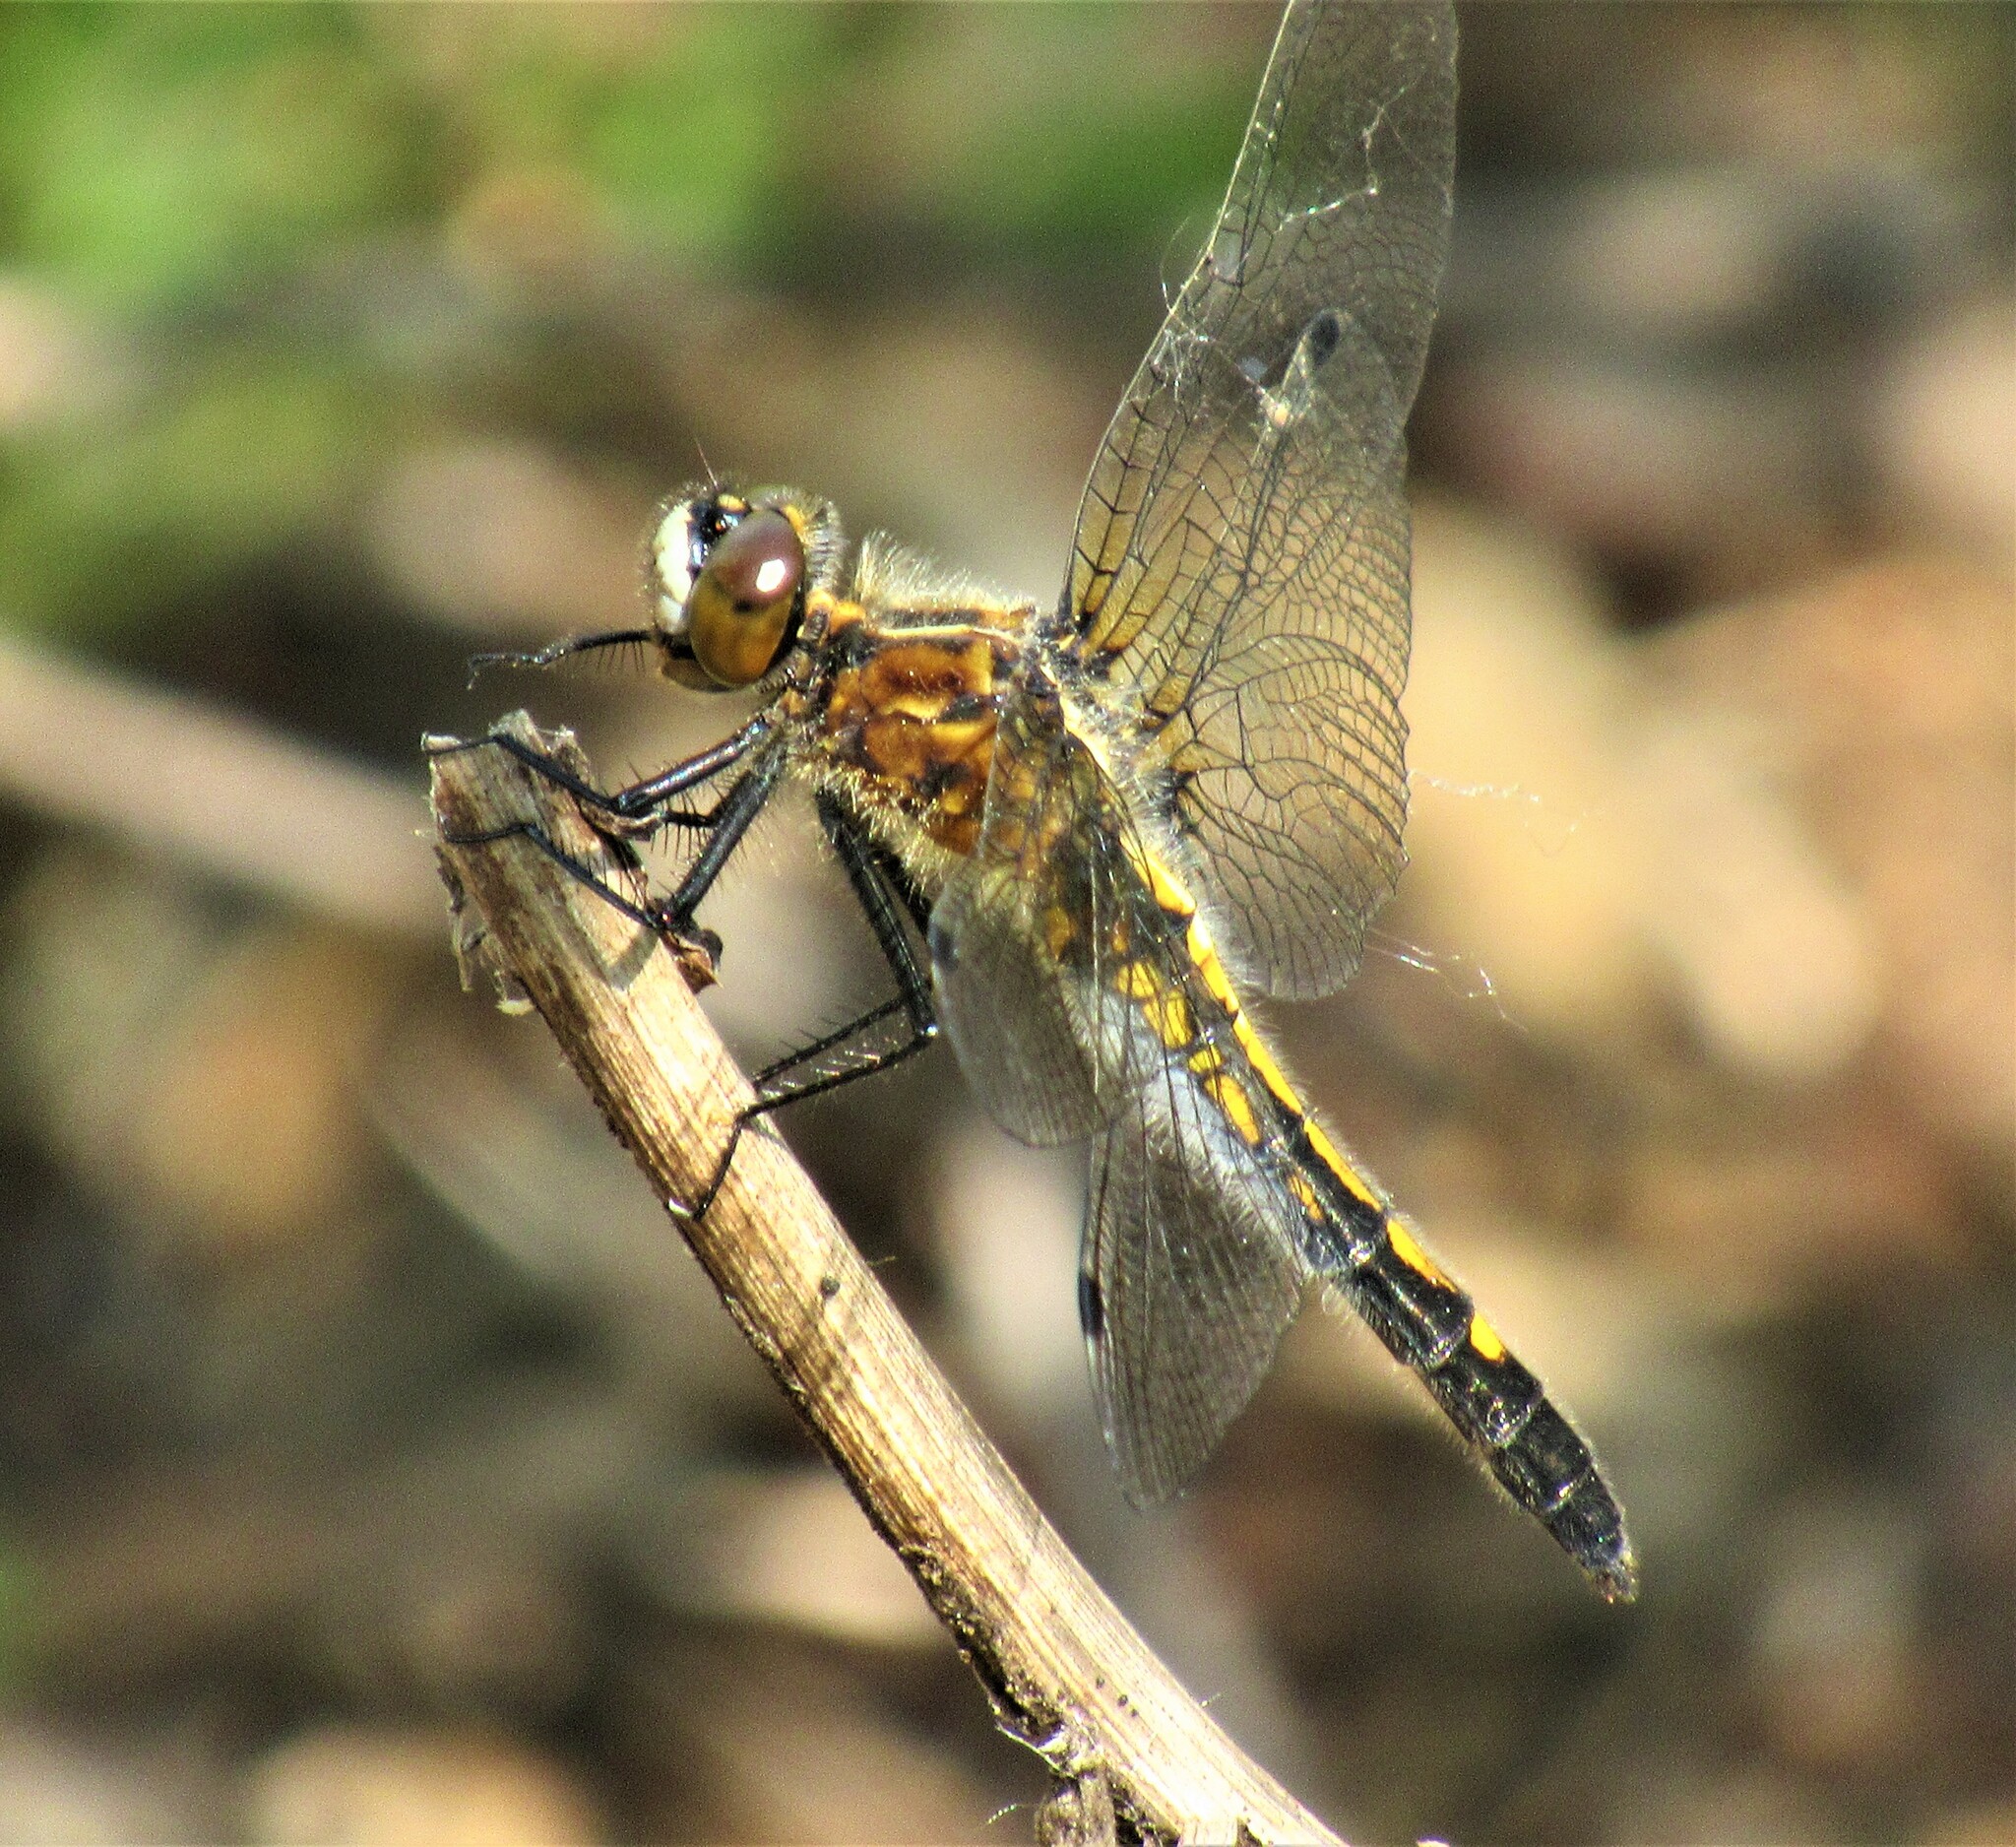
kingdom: Animalia
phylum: Arthropoda
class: Insecta
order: Odonata
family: Libellulidae
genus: Leucorrhinia
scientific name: Leucorrhinia intacta
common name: Dot-tailed whiteface
